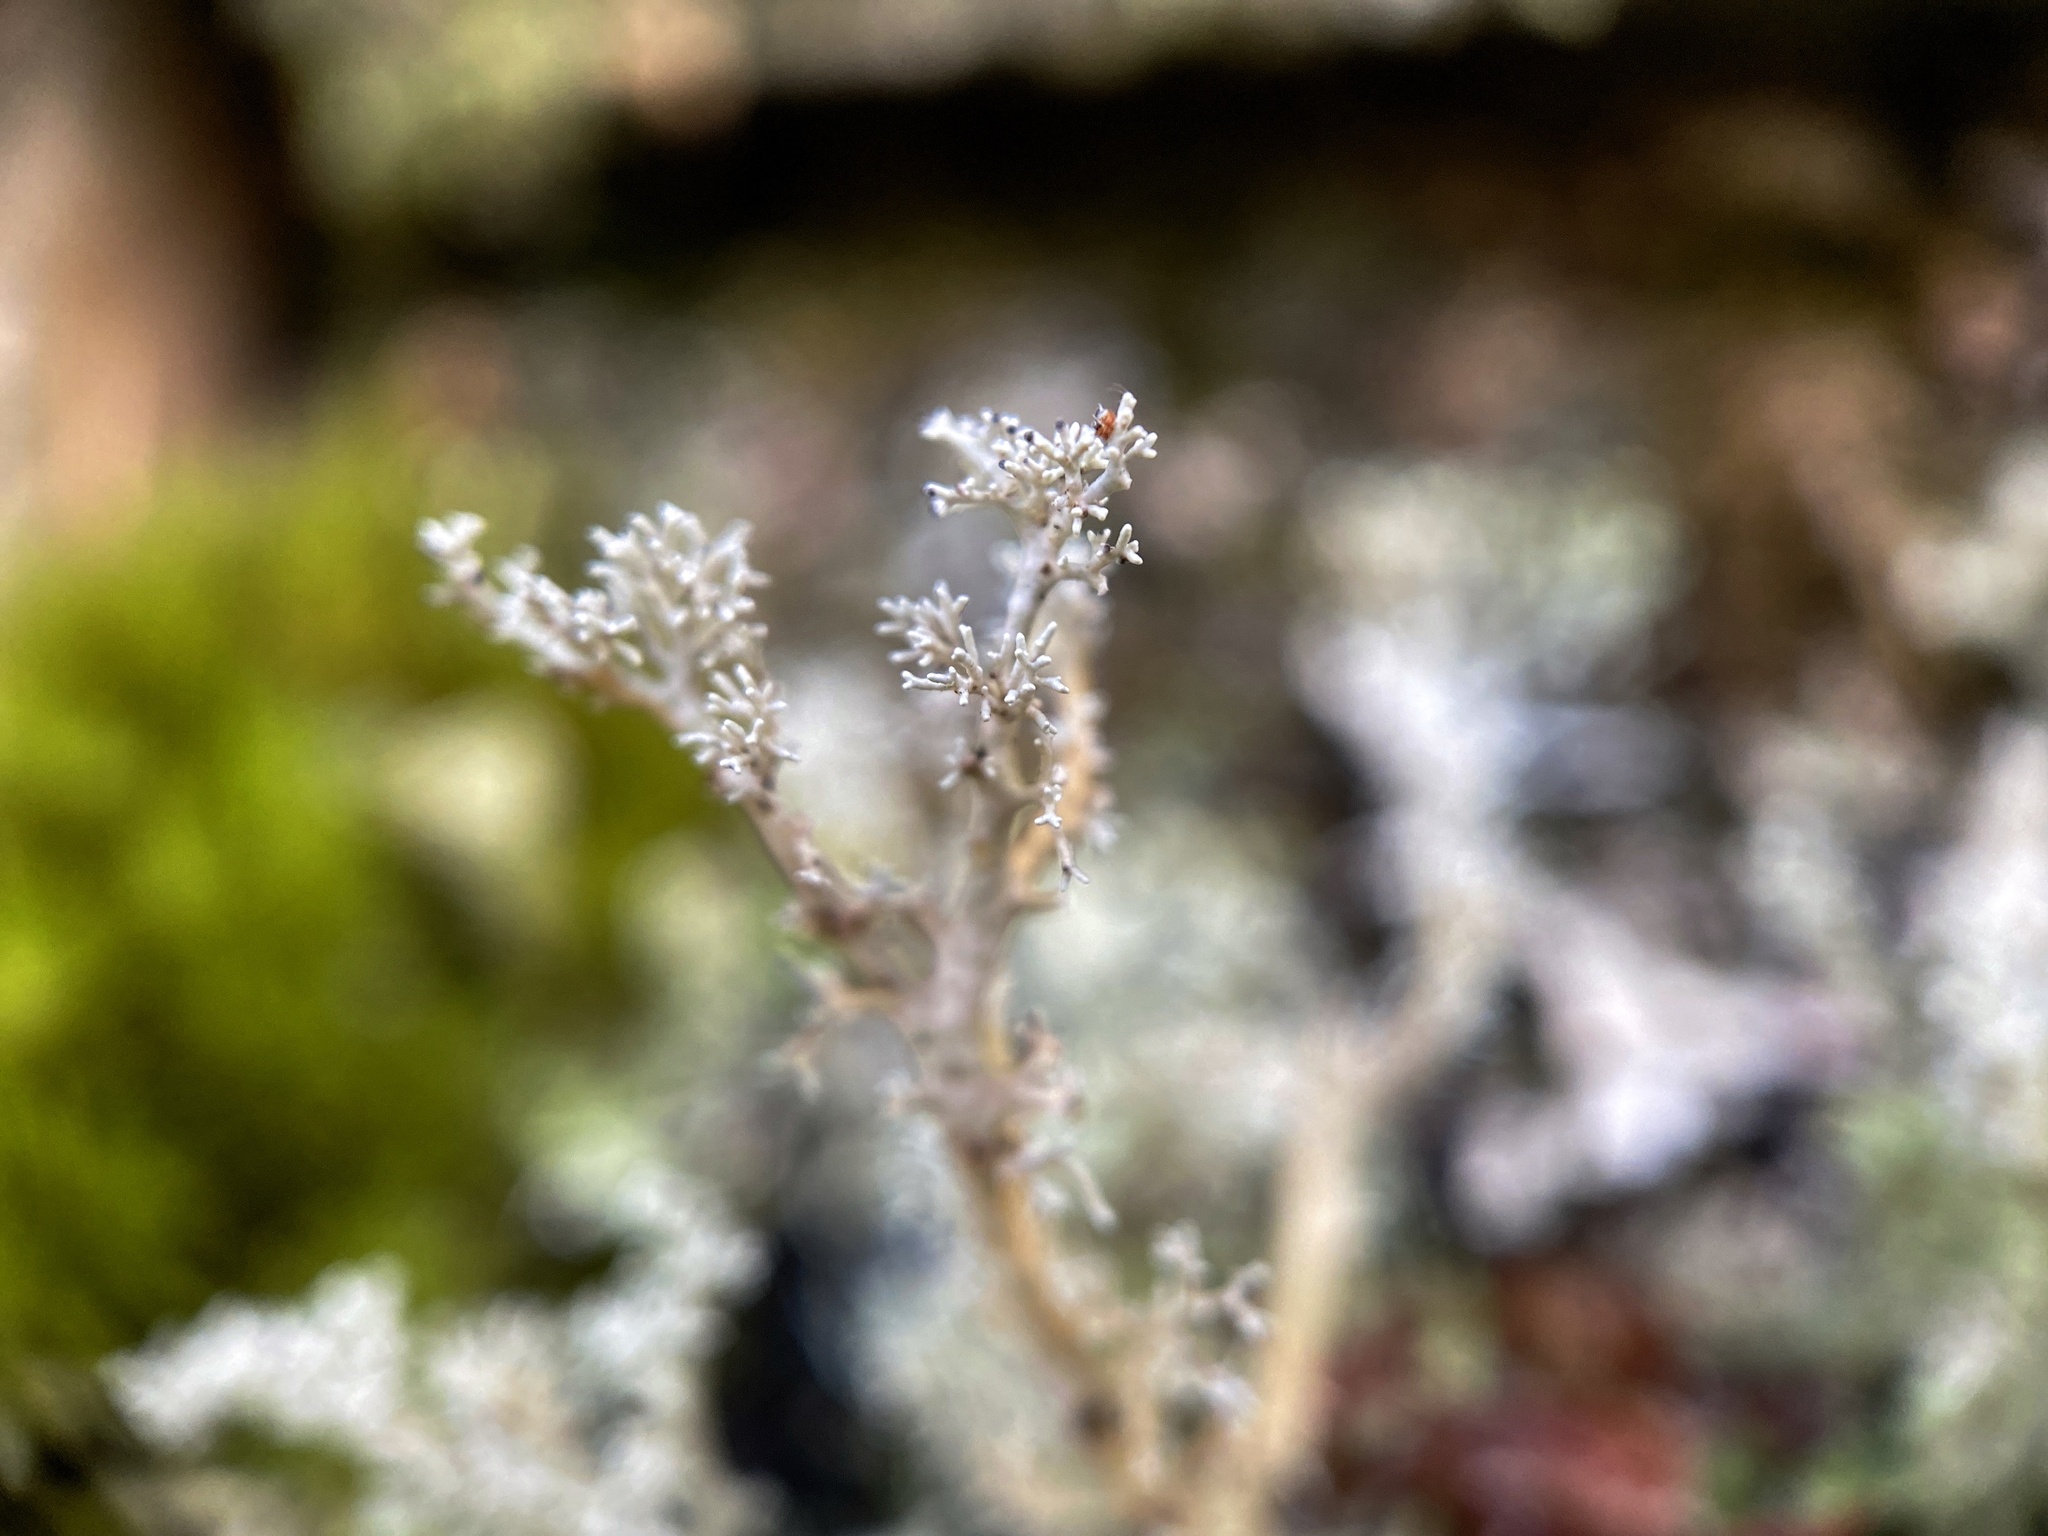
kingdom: Fungi
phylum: Ascomycota
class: Lecanoromycetes
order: Lecanorales
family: Sphaerophoraceae
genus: Sphaerophorus
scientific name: Sphaerophorus globosus
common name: Globe ball lichen
